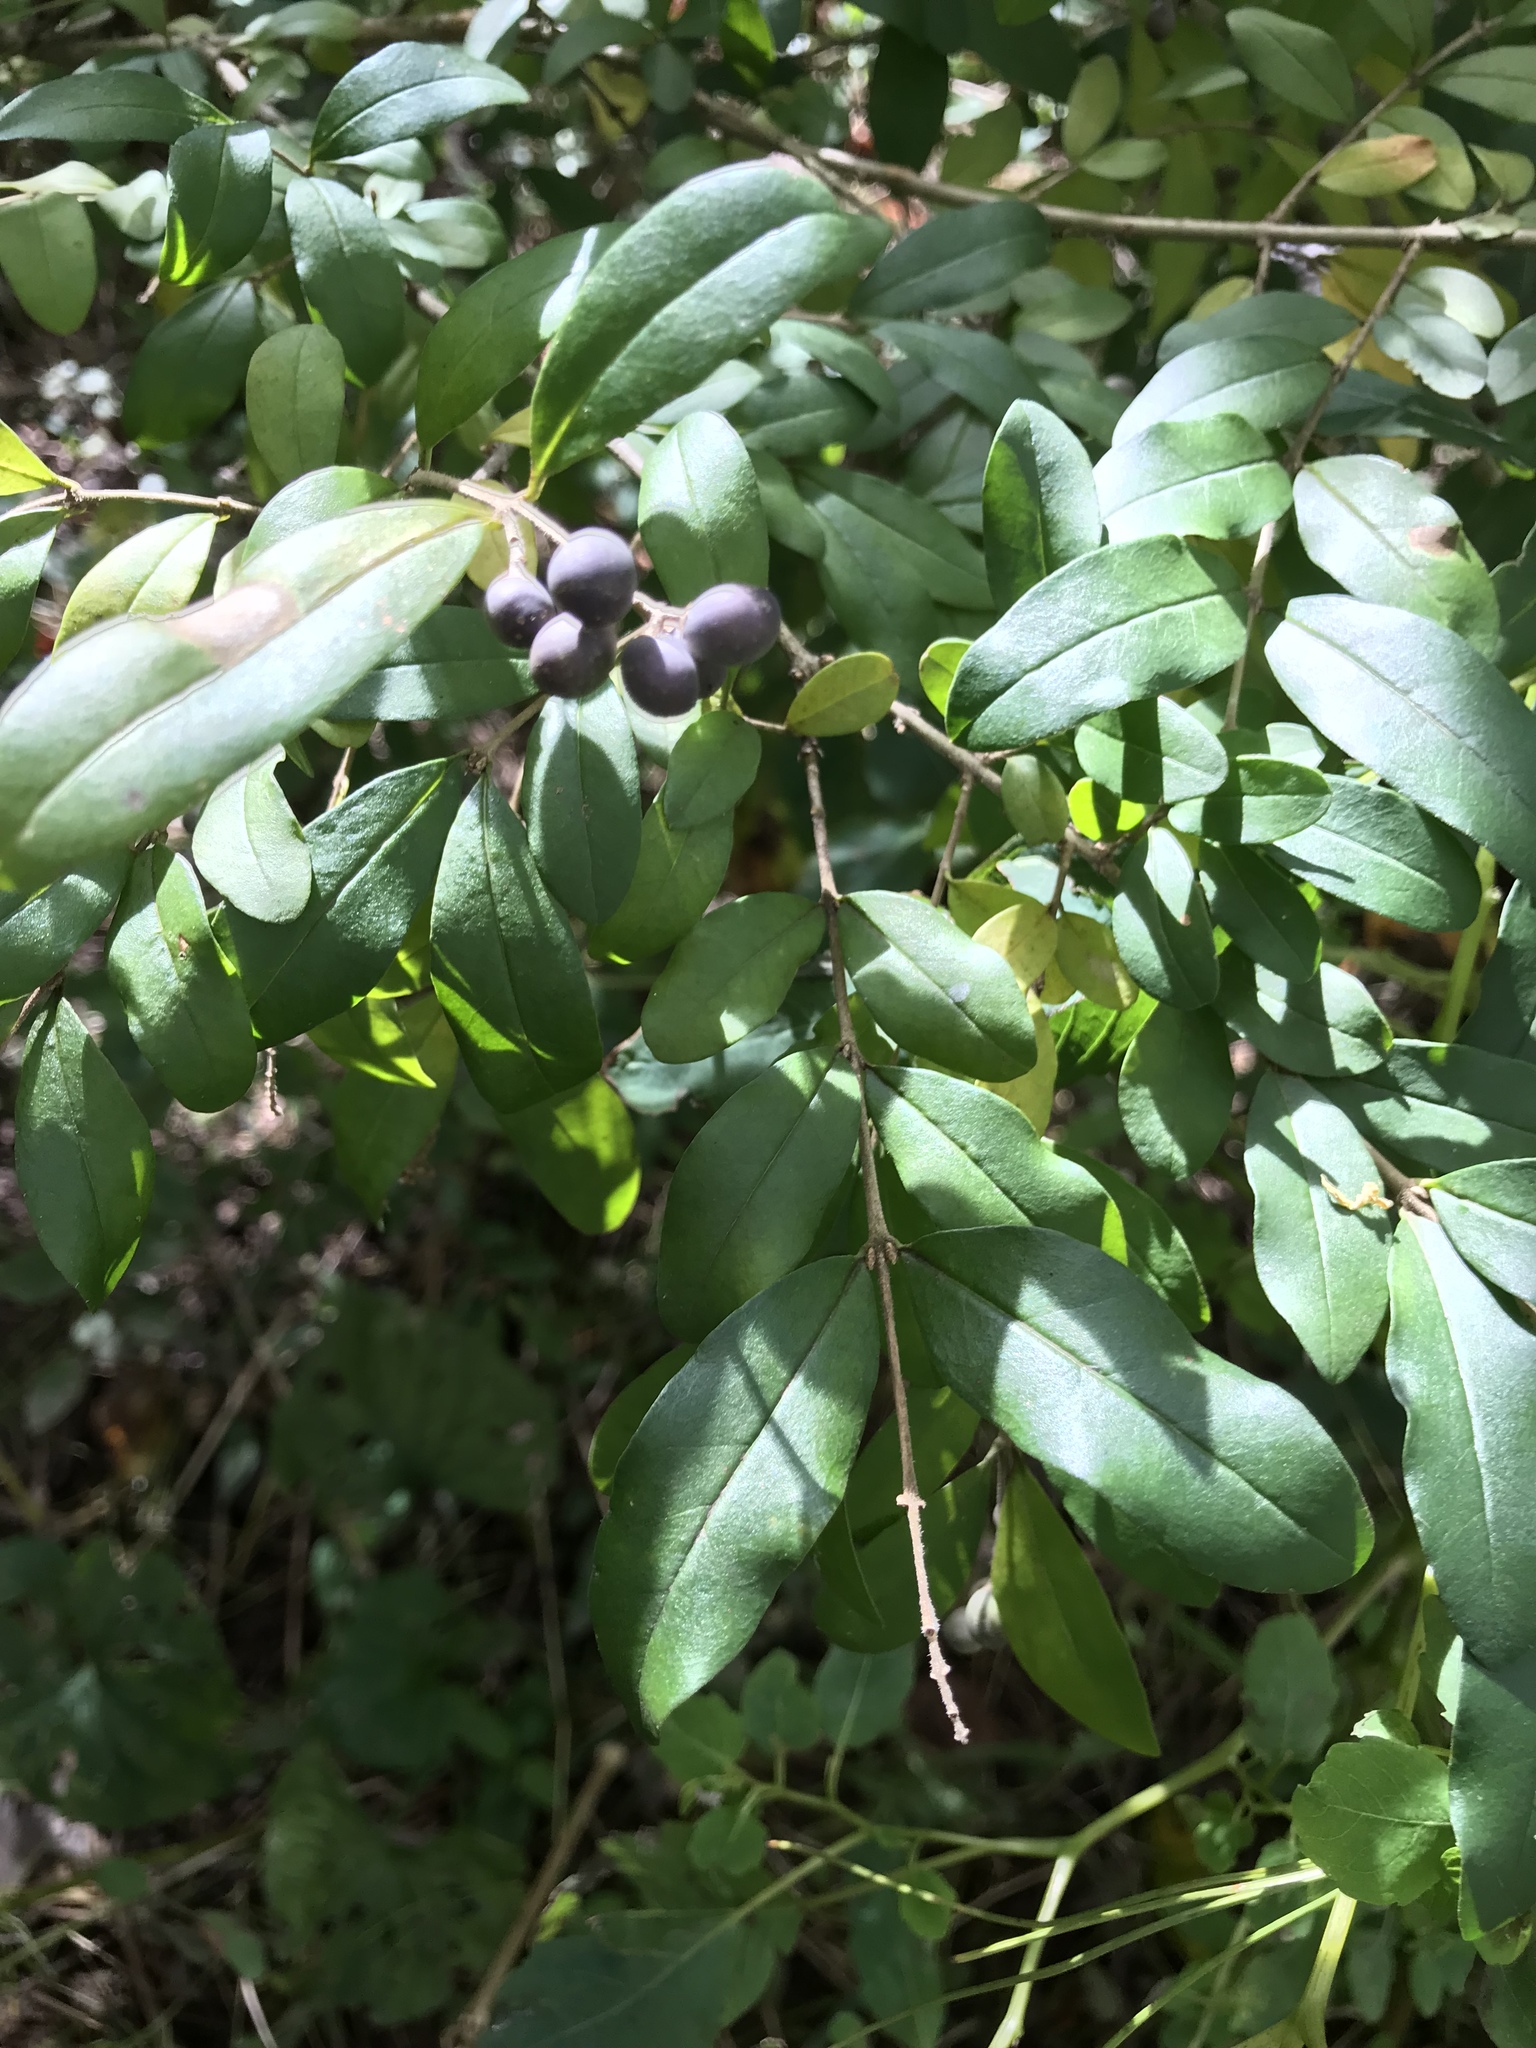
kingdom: Plantae
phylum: Tracheophyta
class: Magnoliopsida
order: Lamiales
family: Oleaceae
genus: Ligustrum
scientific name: Ligustrum obtusifolium
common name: Border privet
